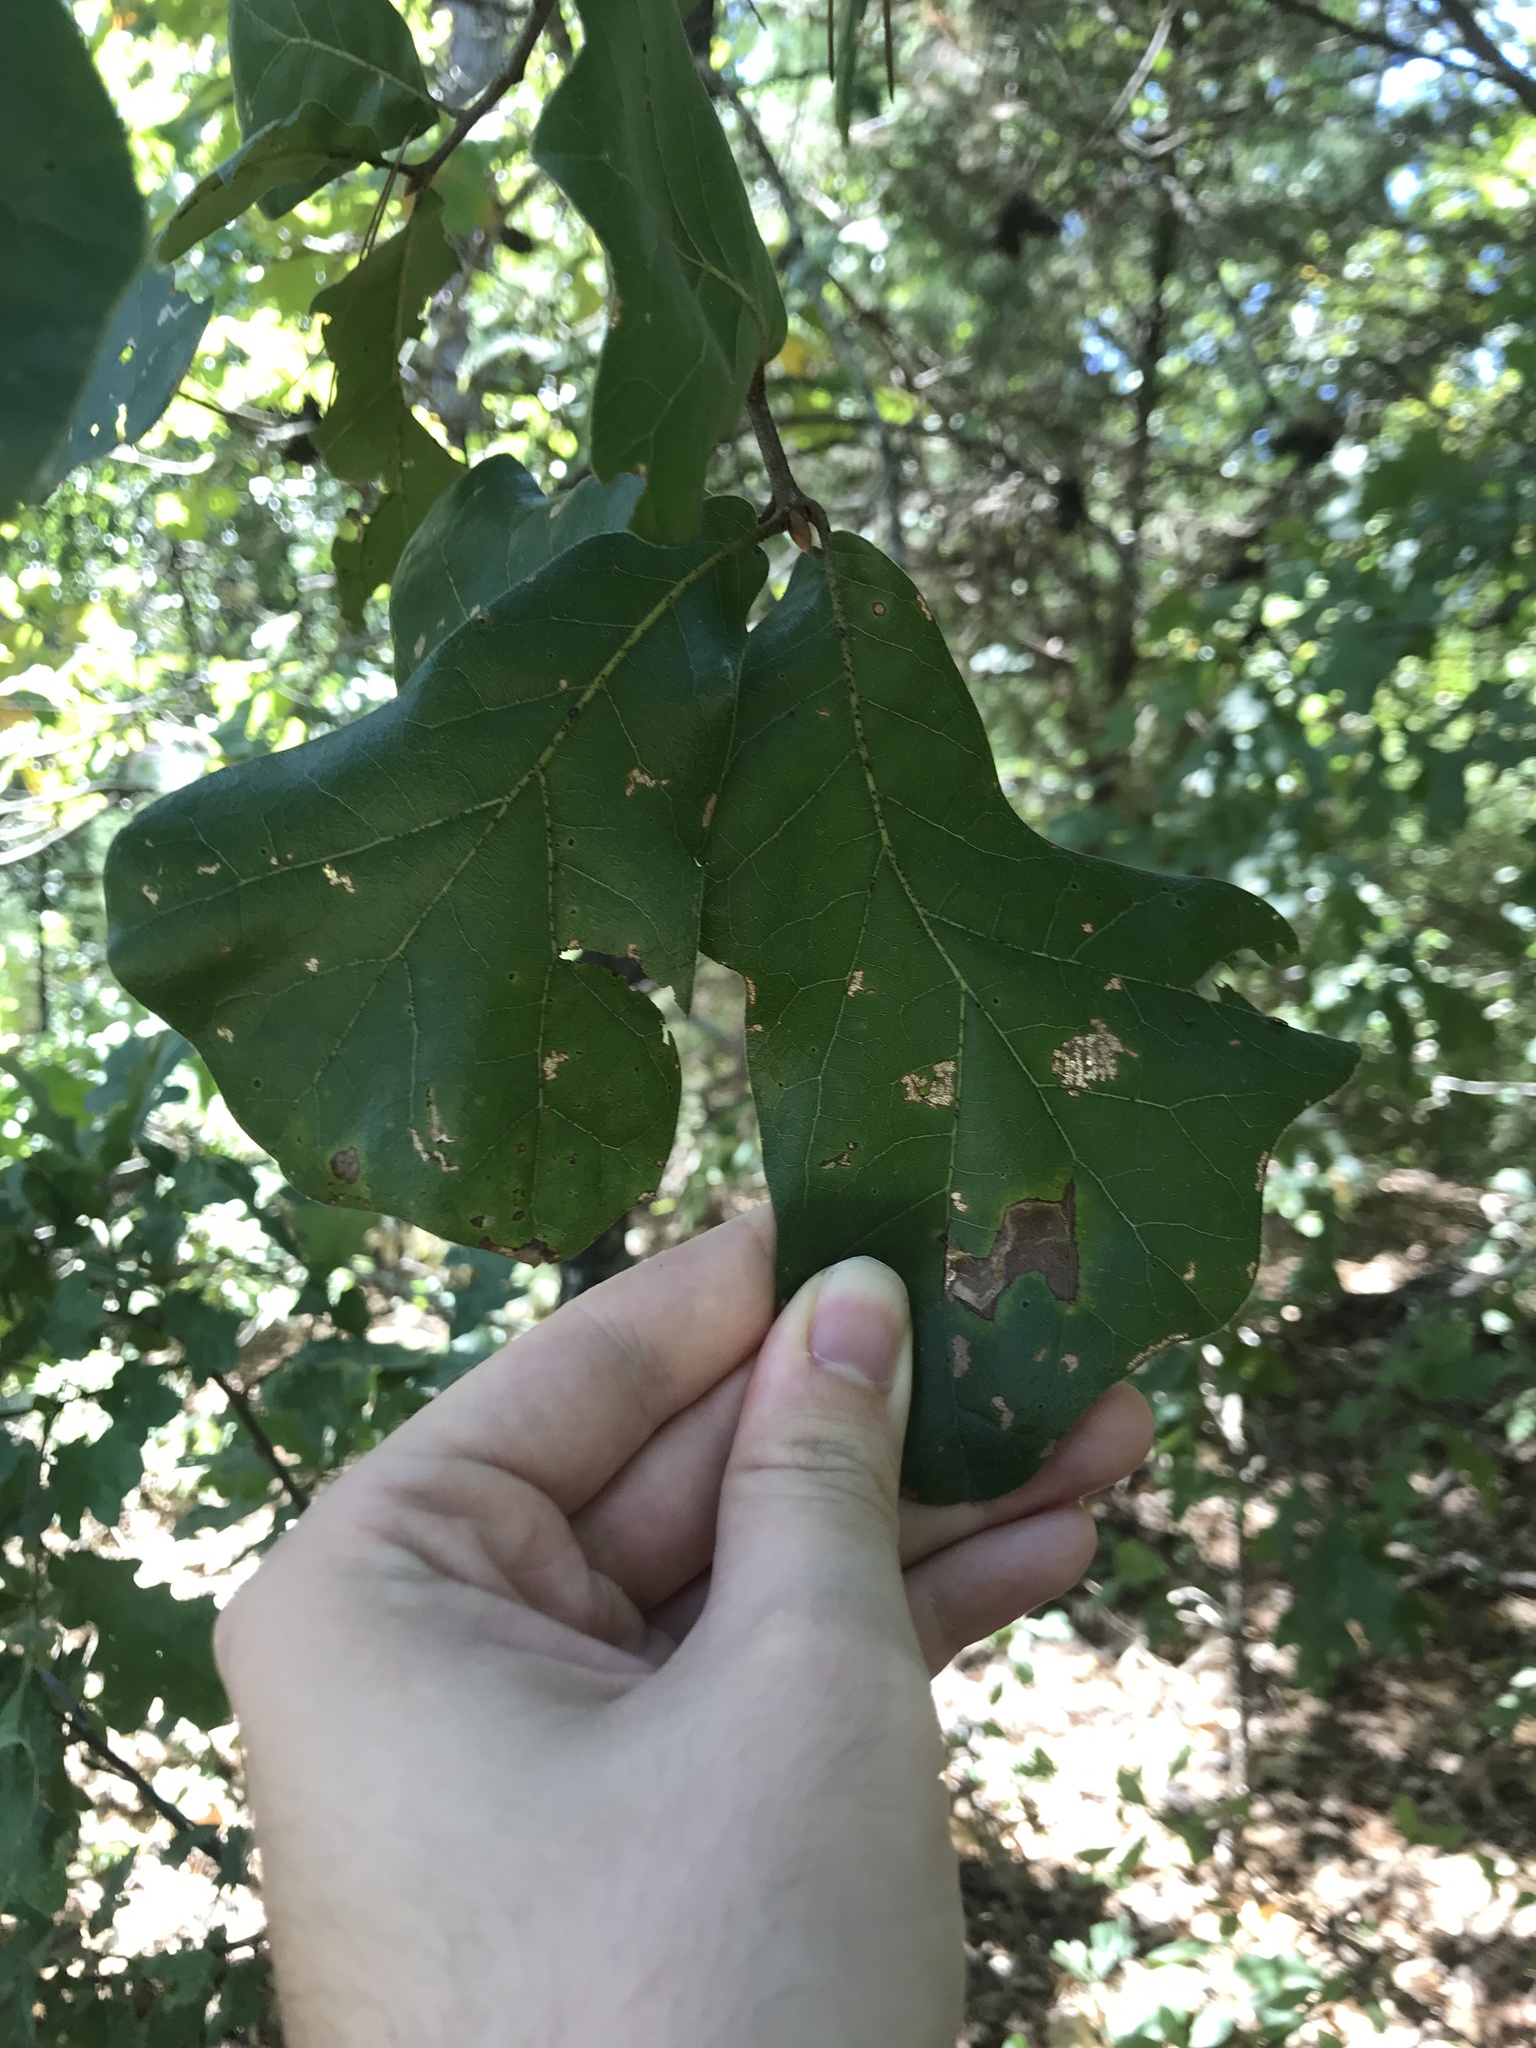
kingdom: Plantae
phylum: Tracheophyta
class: Magnoliopsida
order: Fagales
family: Fagaceae
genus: Quercus
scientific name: Quercus marilandica
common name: Blackjack oak
